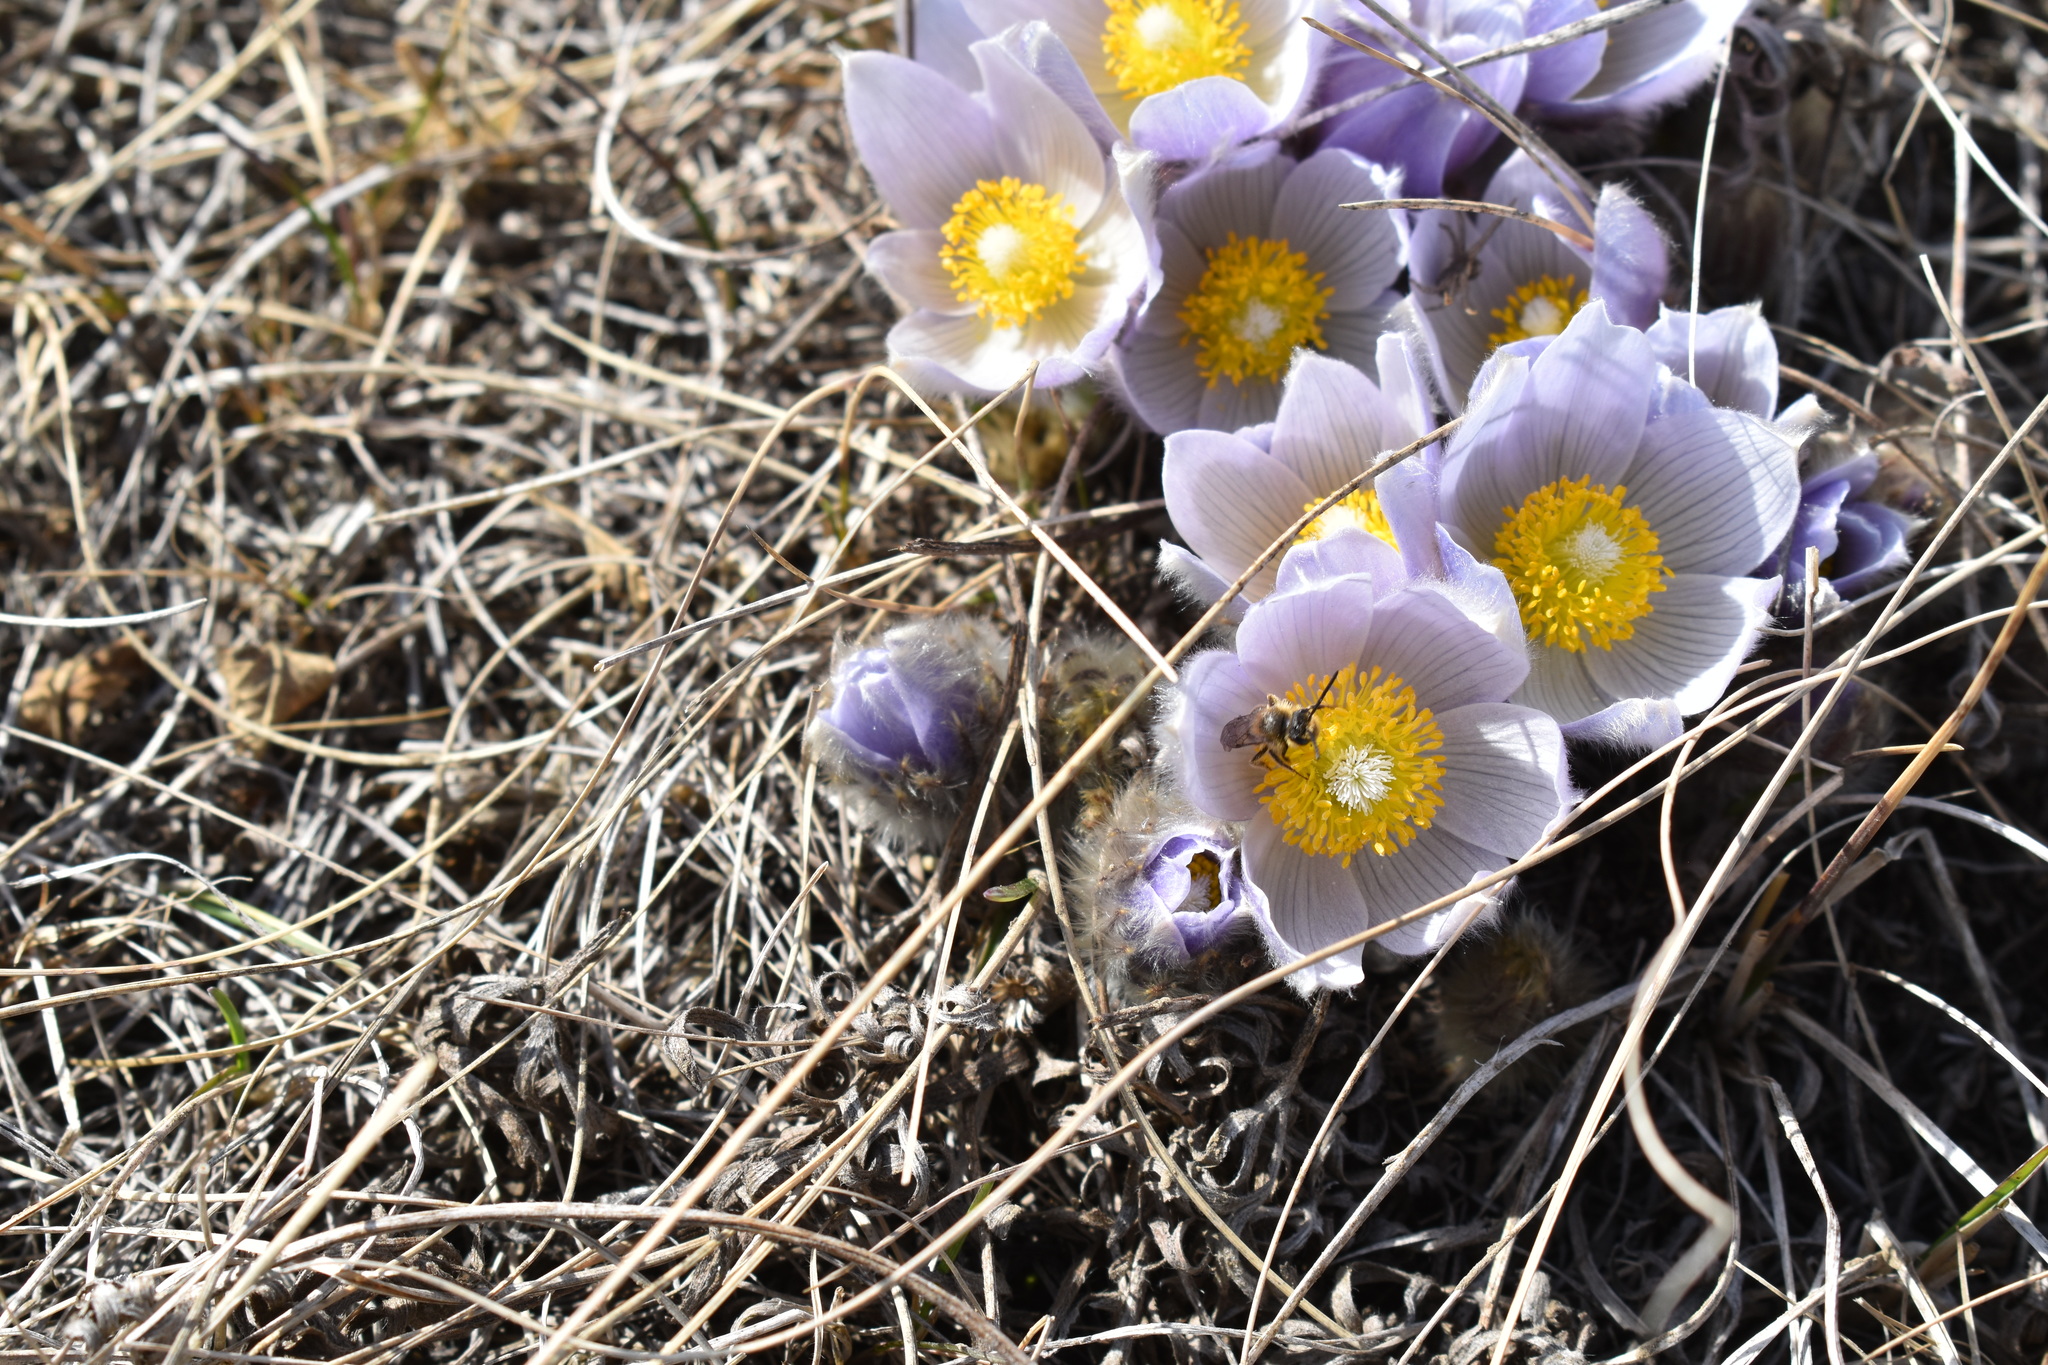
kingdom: Plantae
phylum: Tracheophyta
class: Magnoliopsida
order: Ranunculales
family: Ranunculaceae
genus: Pulsatilla
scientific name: Pulsatilla nuttalliana
